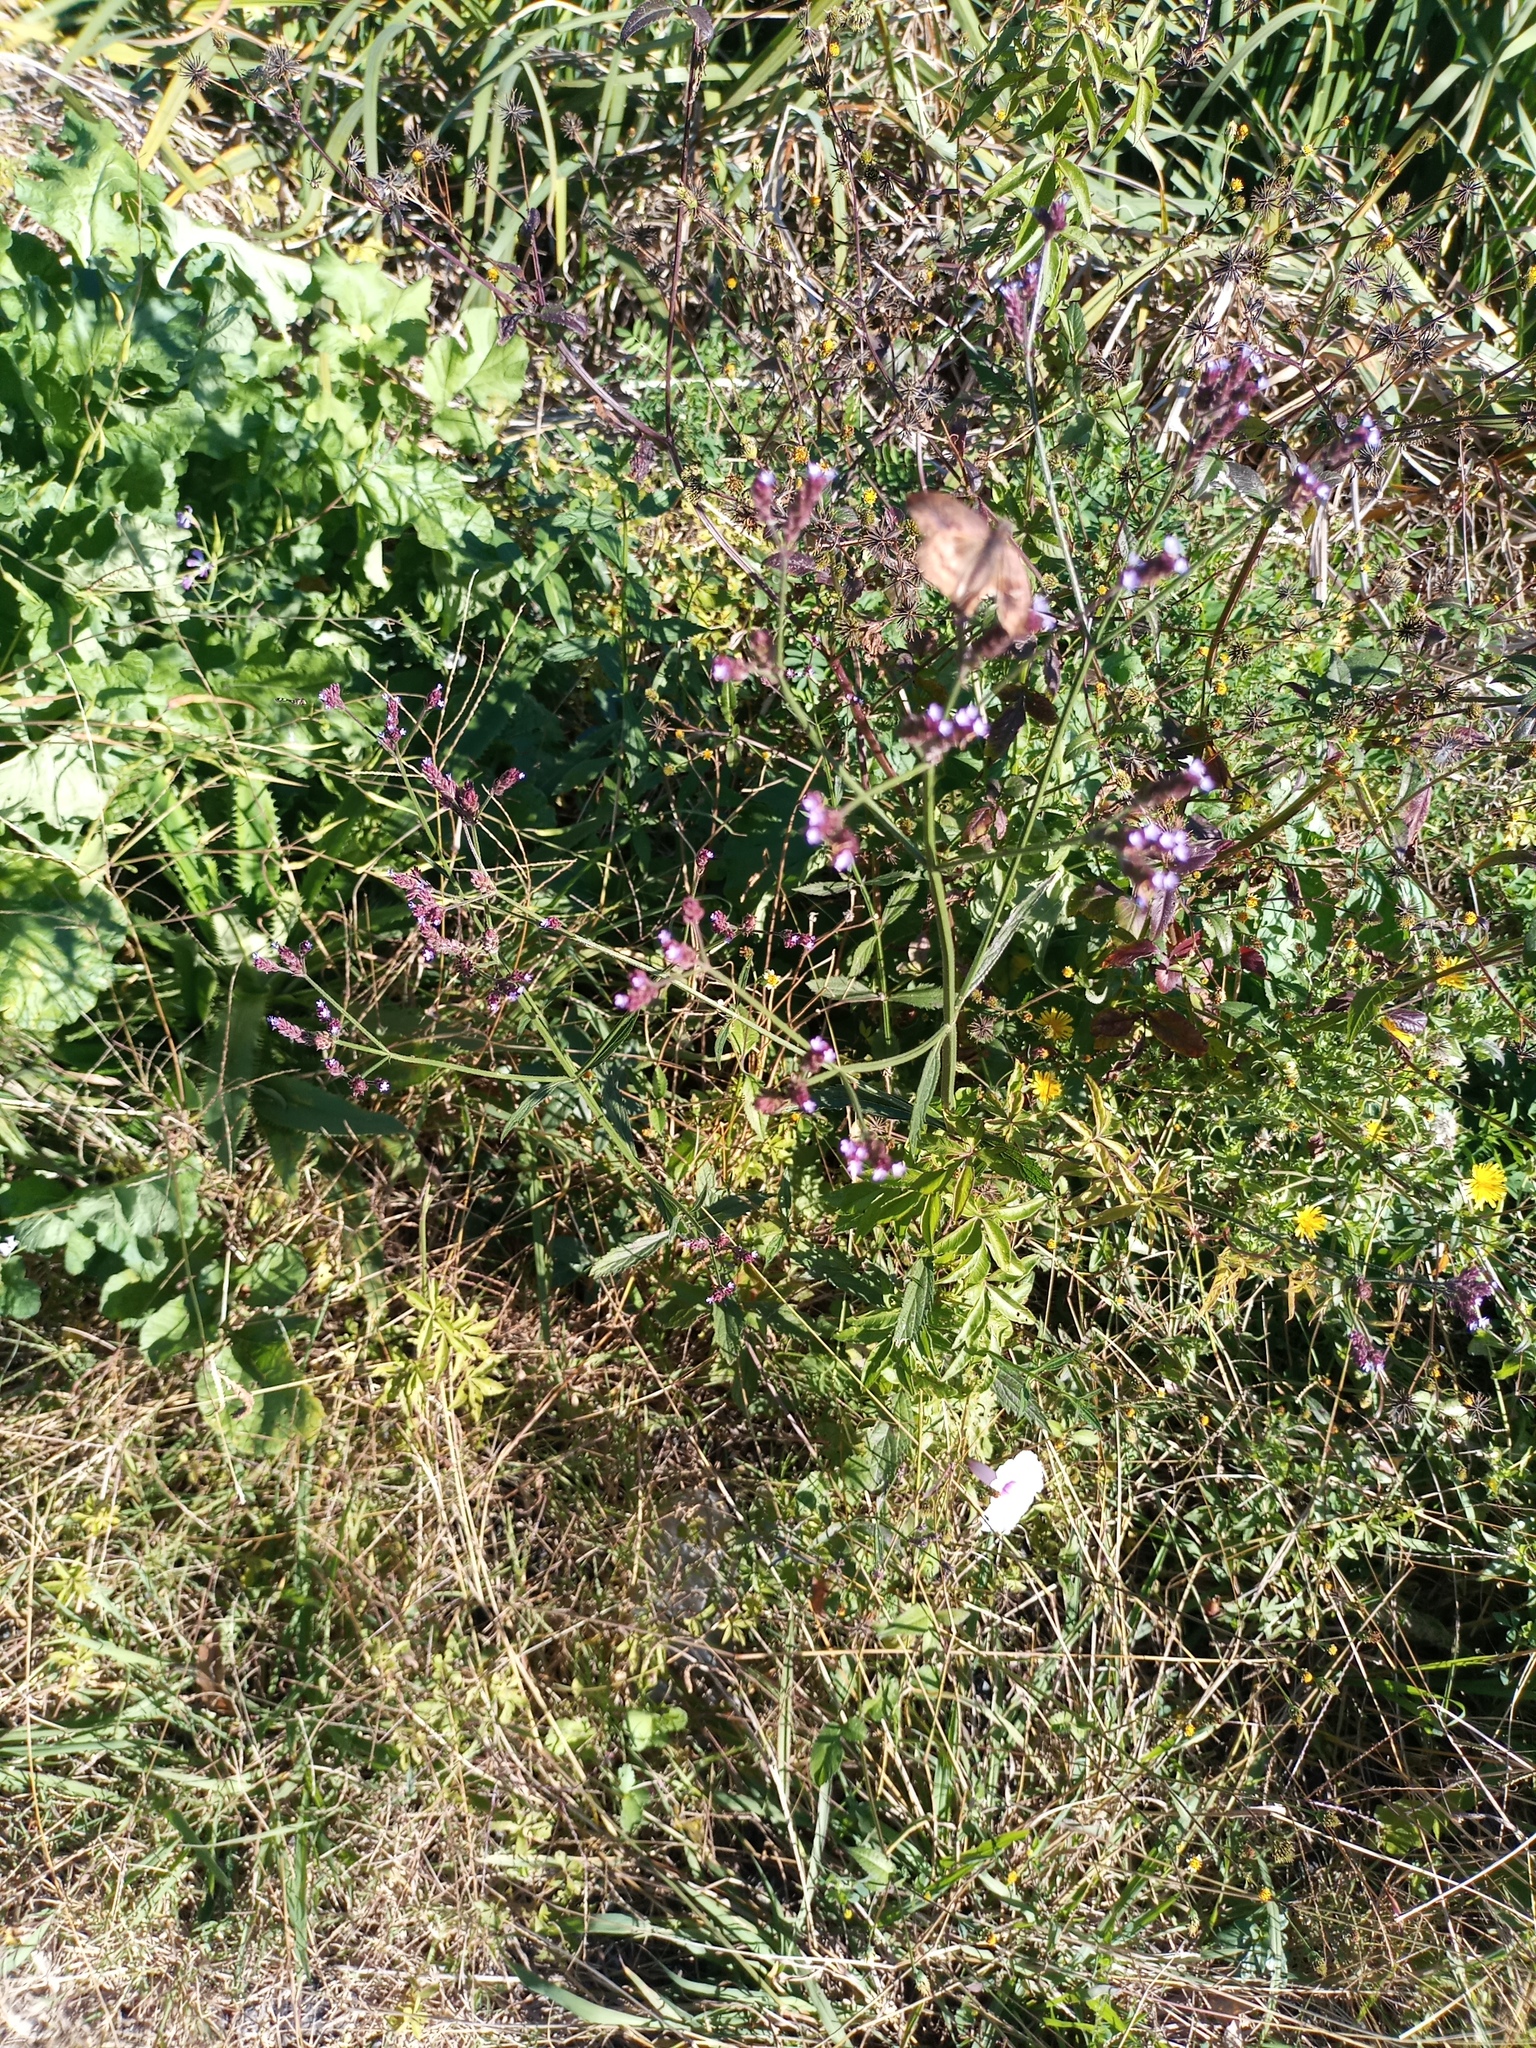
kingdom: Plantae
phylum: Tracheophyta
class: Magnoliopsida
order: Lamiales
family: Verbenaceae
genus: Verbena
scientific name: Verbena bonariensis
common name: Purpletop vervain
